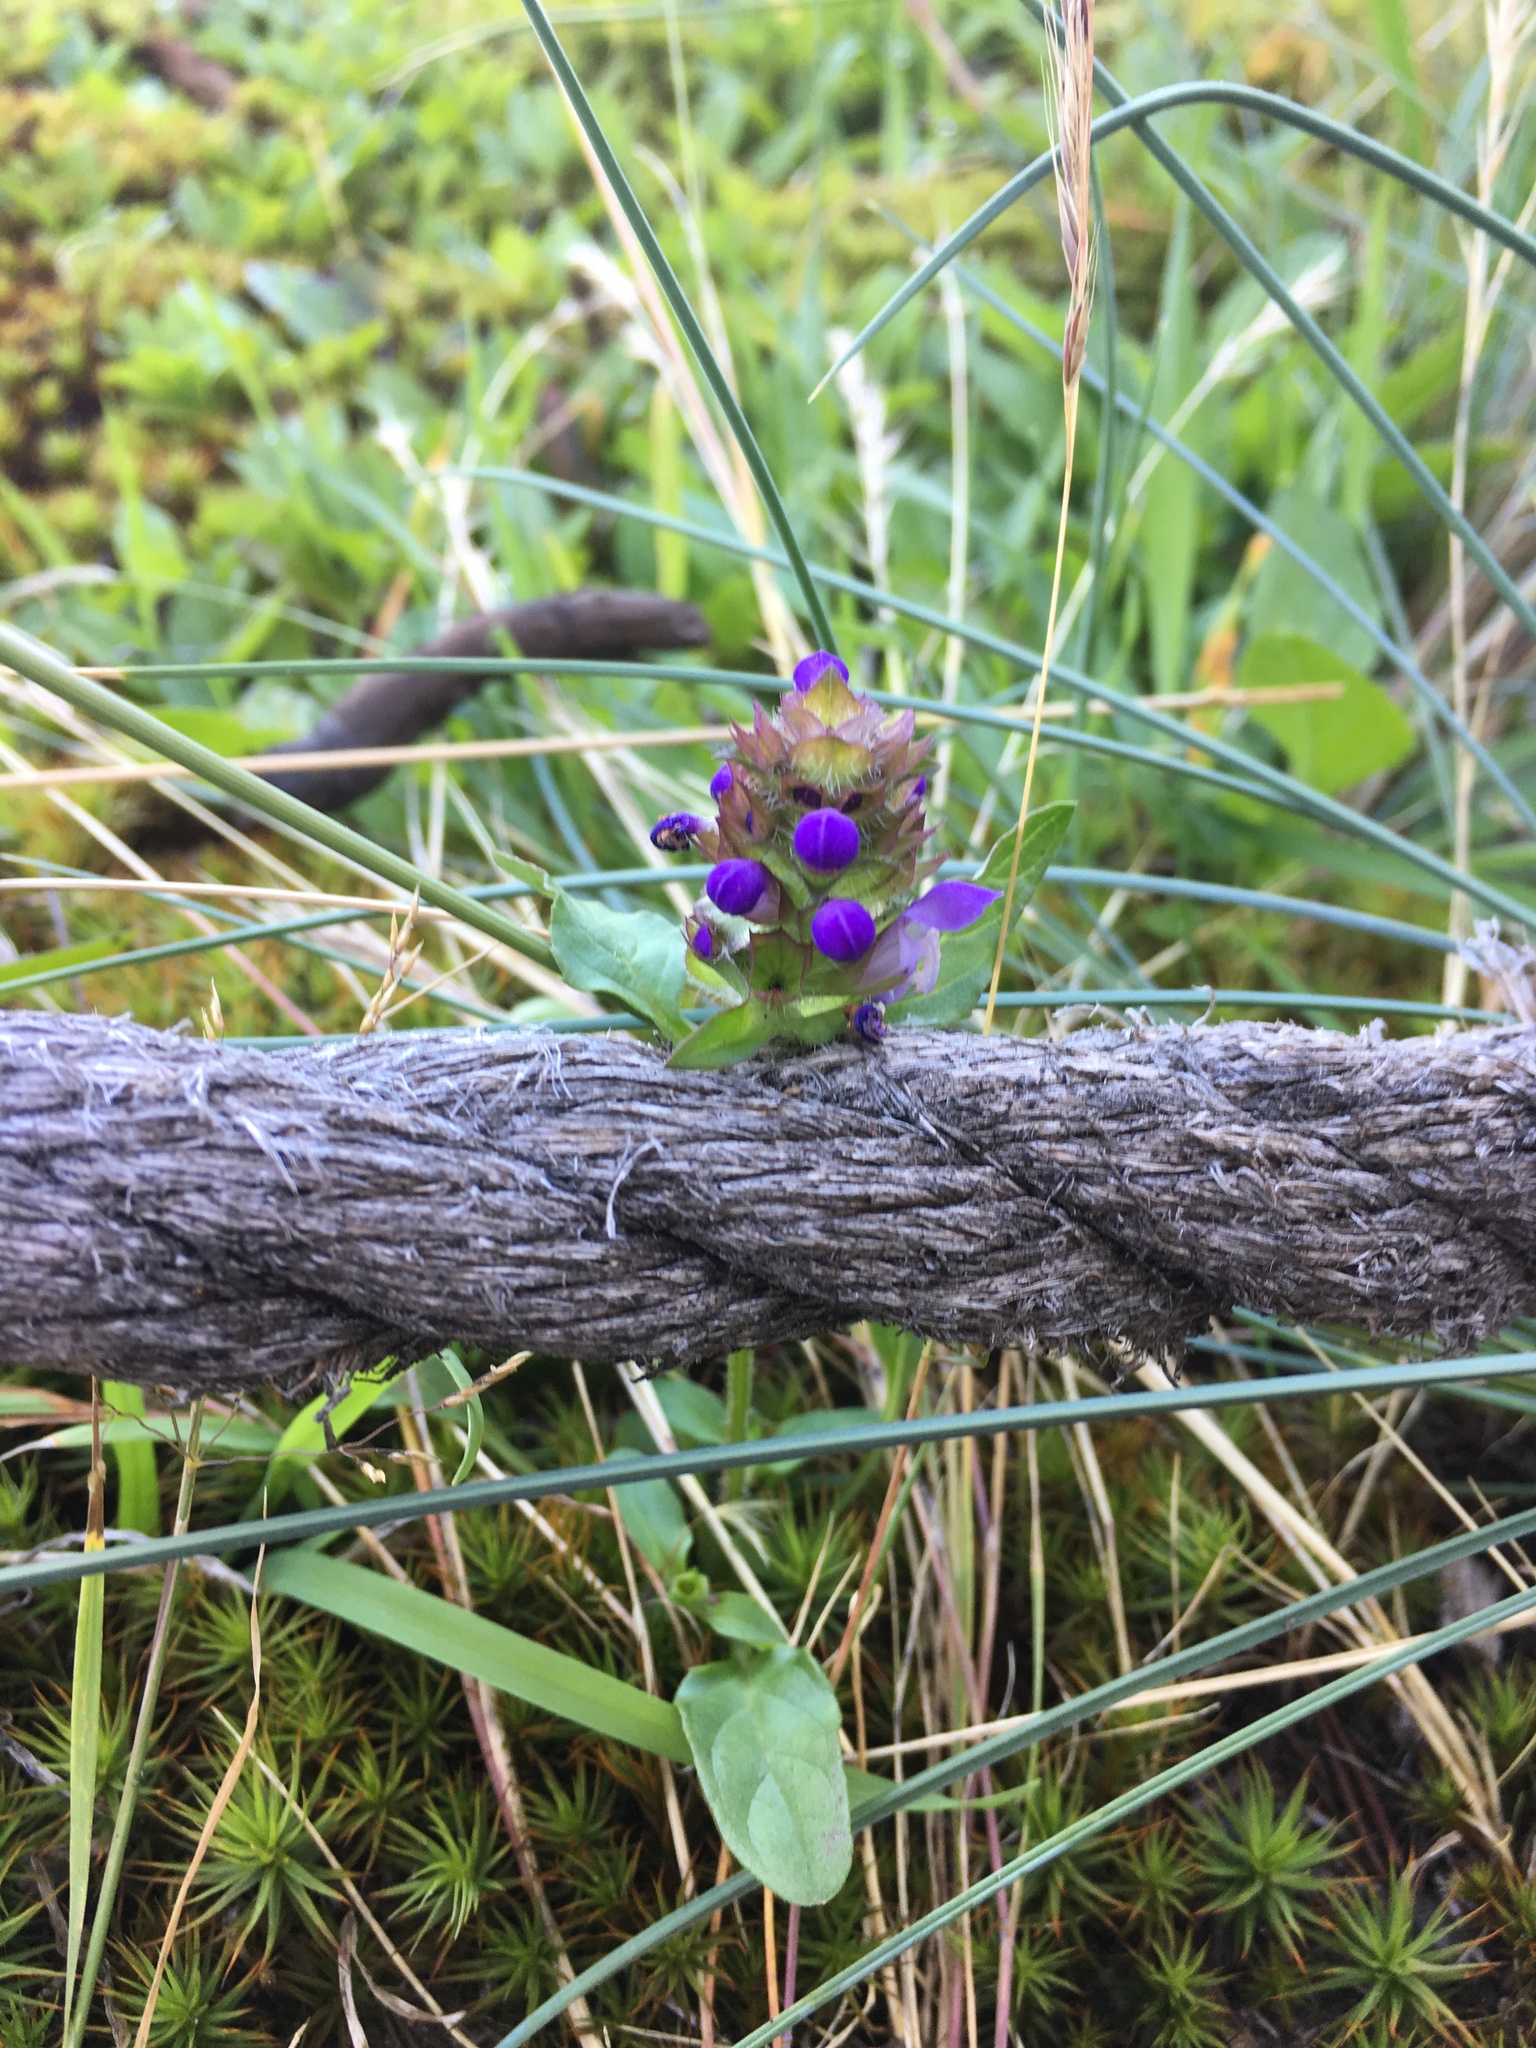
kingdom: Plantae
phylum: Tracheophyta
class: Magnoliopsida
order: Lamiales
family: Lamiaceae
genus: Prunella
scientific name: Prunella vulgaris
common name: Heal-all
